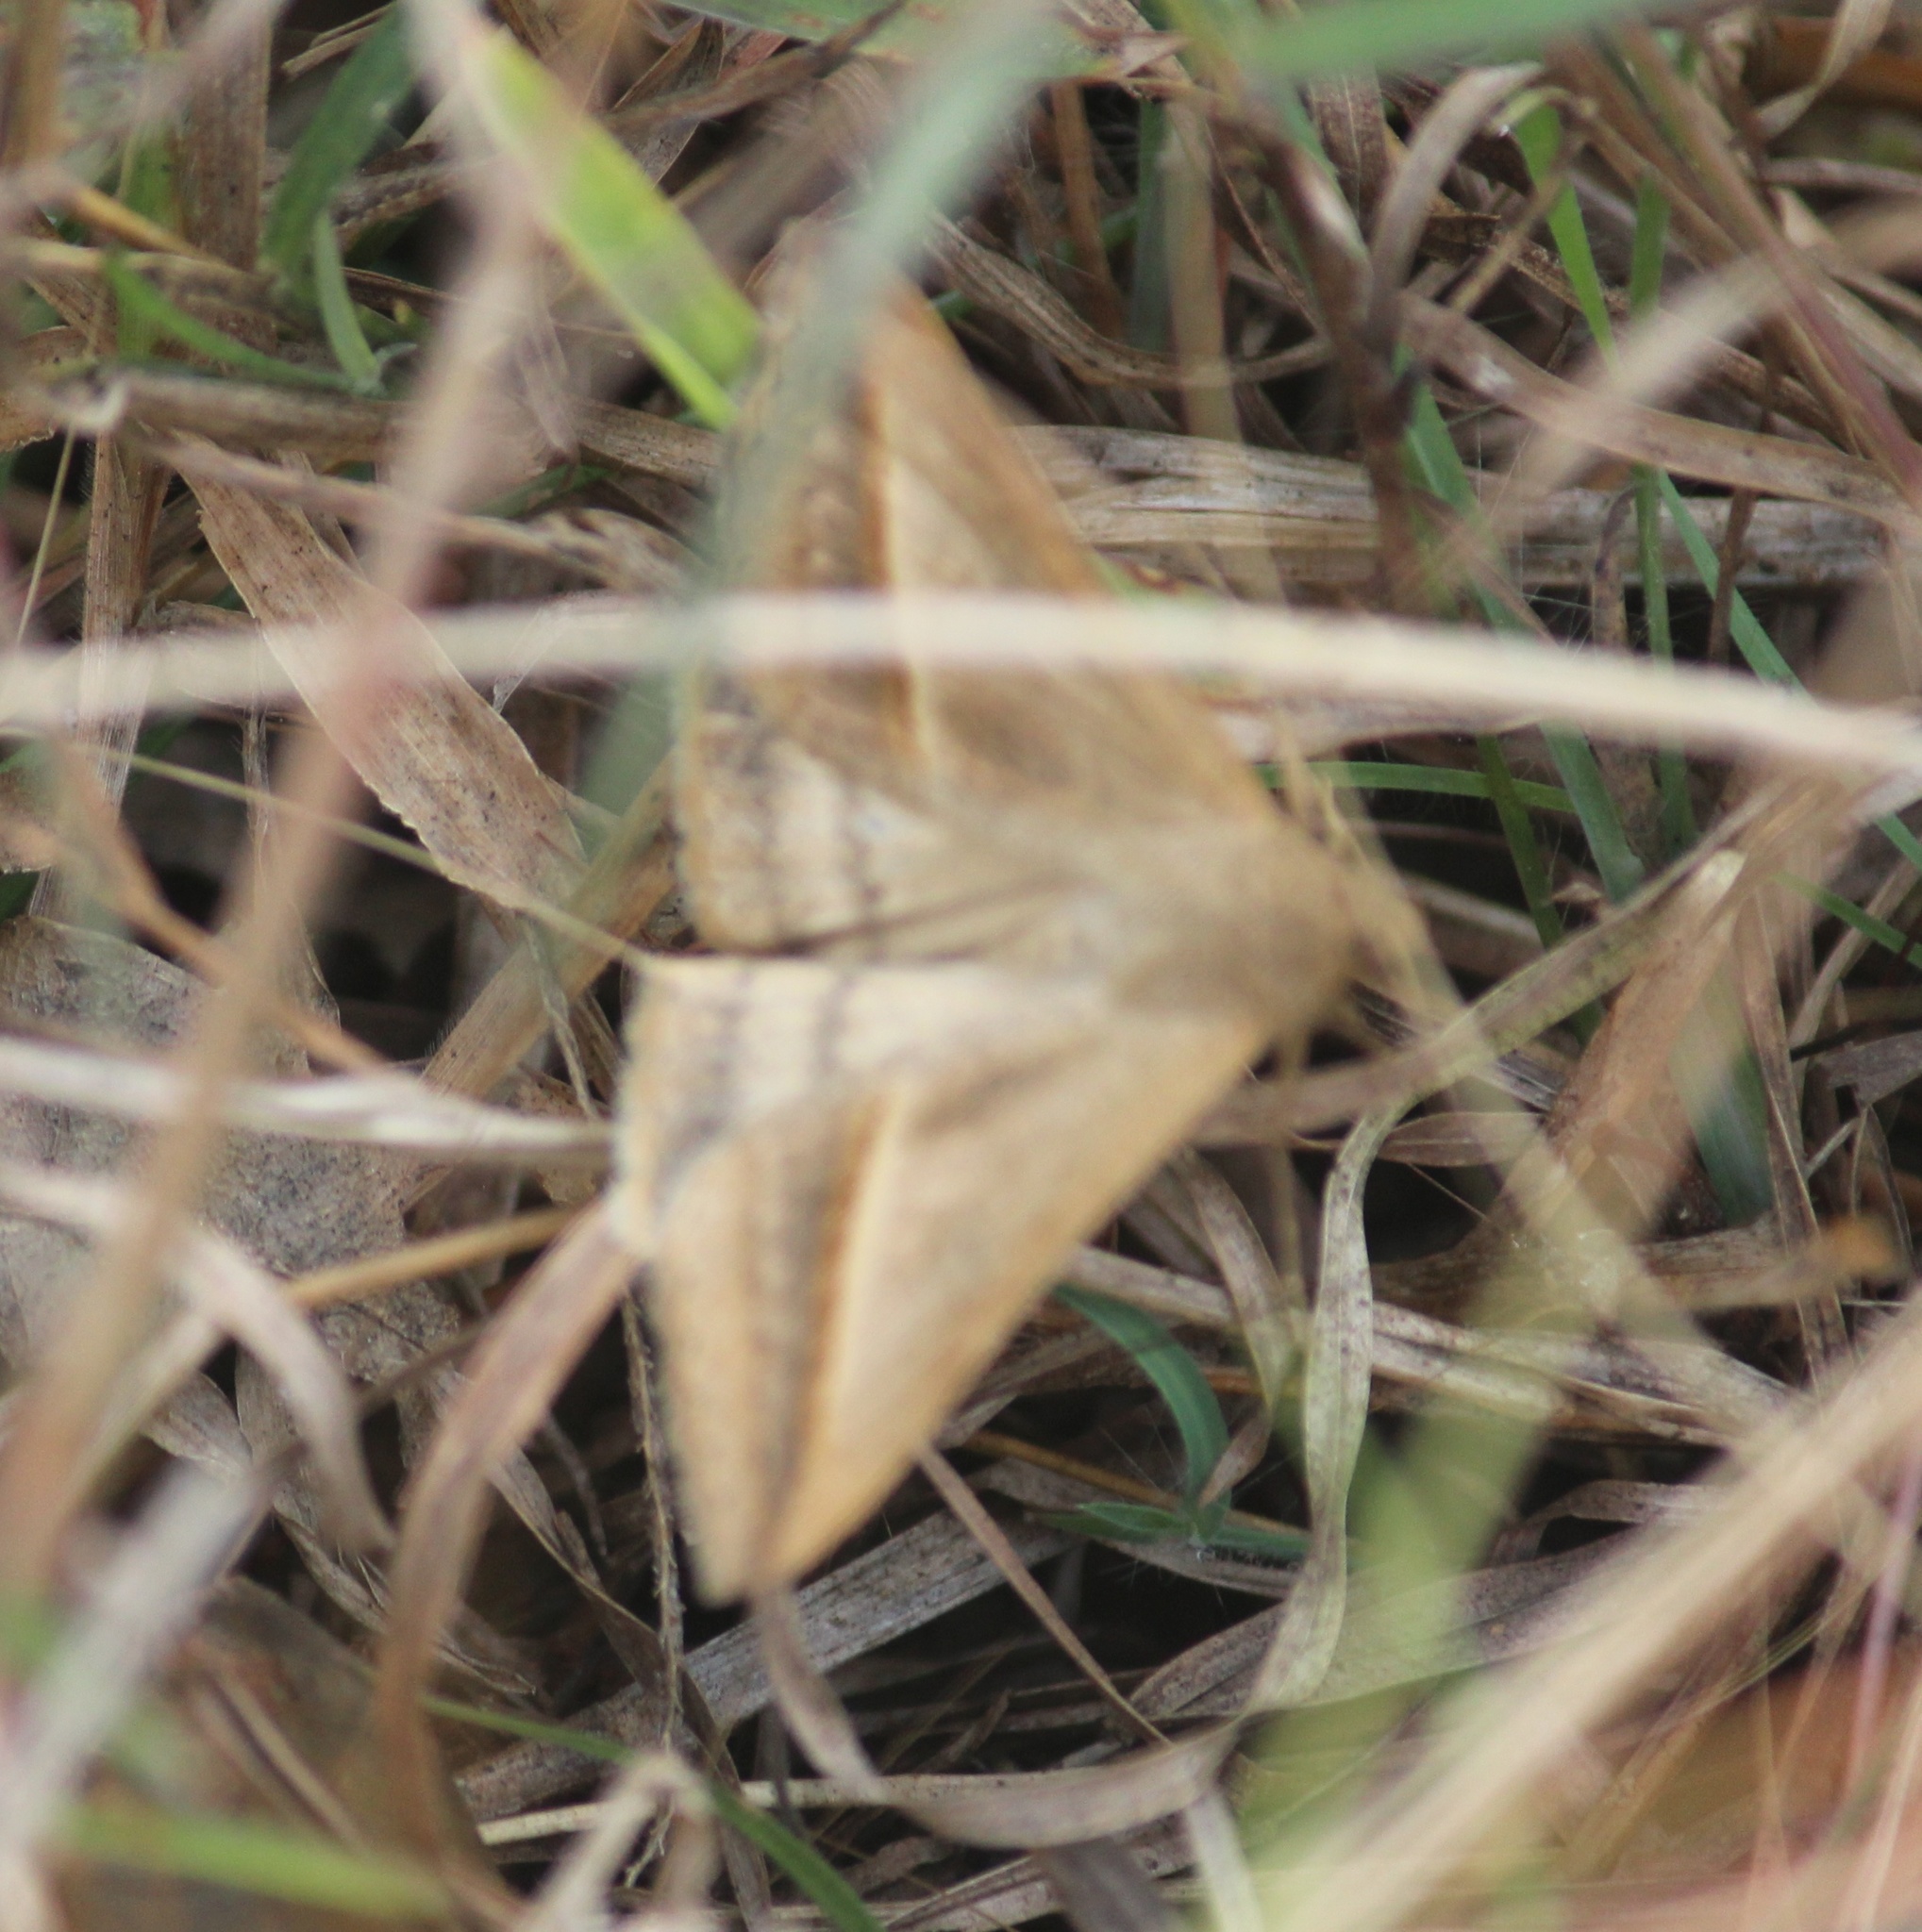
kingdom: Animalia
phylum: Arthropoda
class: Insecta
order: Lepidoptera
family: Erebidae
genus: Mocis
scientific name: Mocis frugalis
